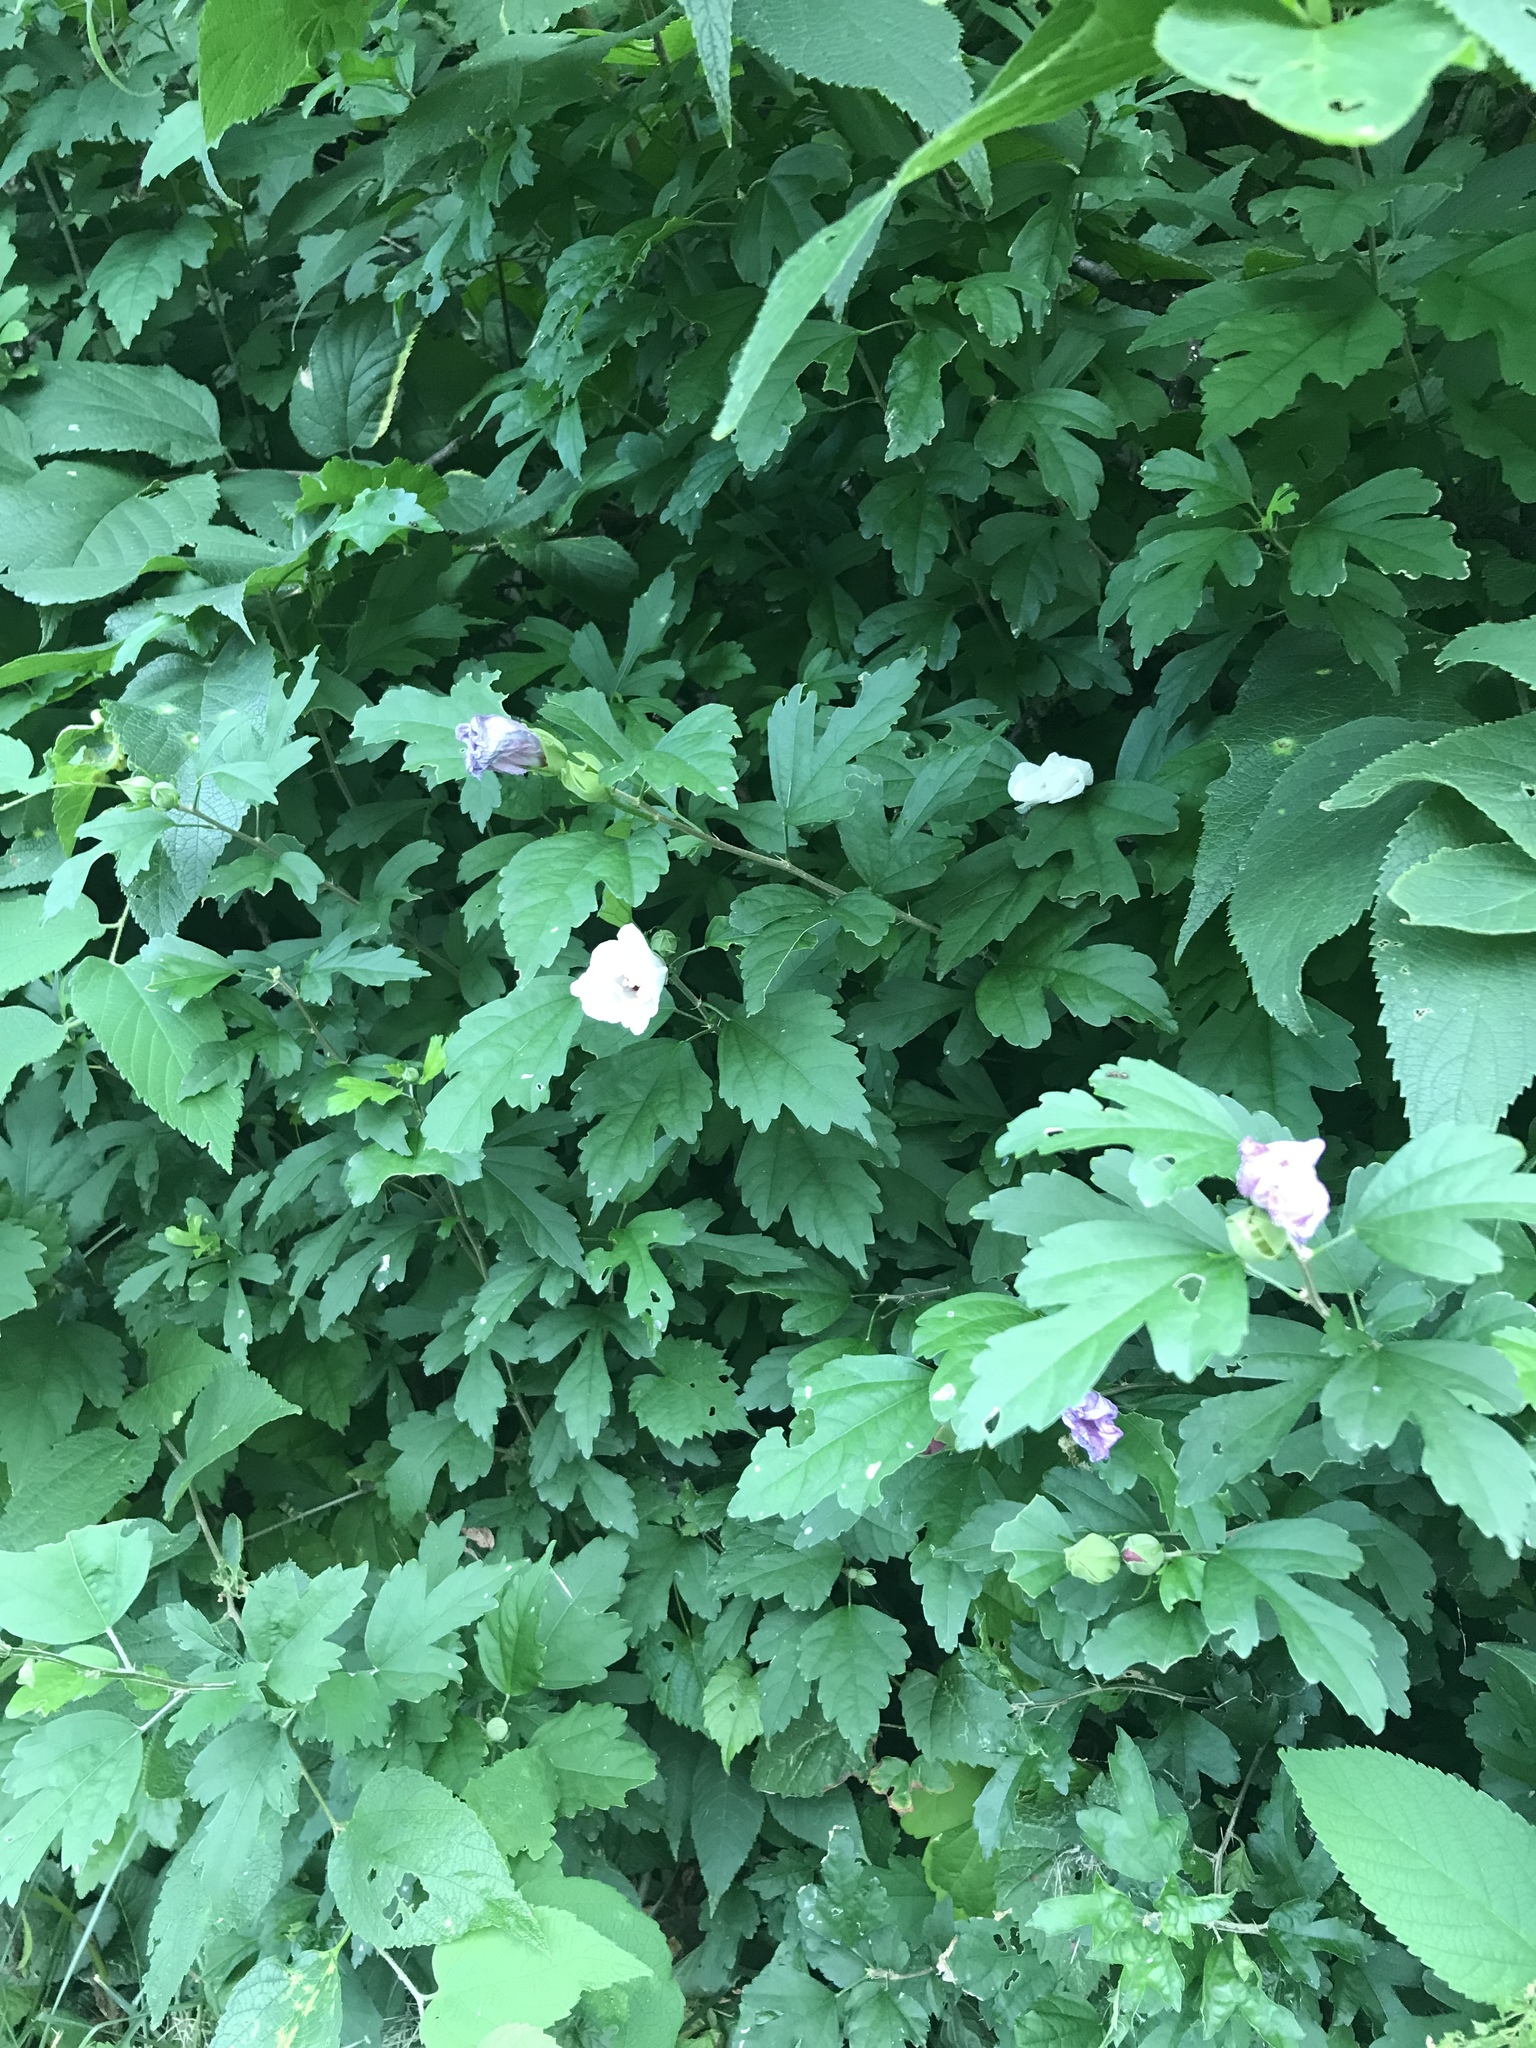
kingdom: Plantae
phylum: Tracheophyta
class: Magnoliopsida
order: Malvales
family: Malvaceae
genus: Hibiscus
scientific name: Hibiscus syriacus
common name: Syrian ketmia
